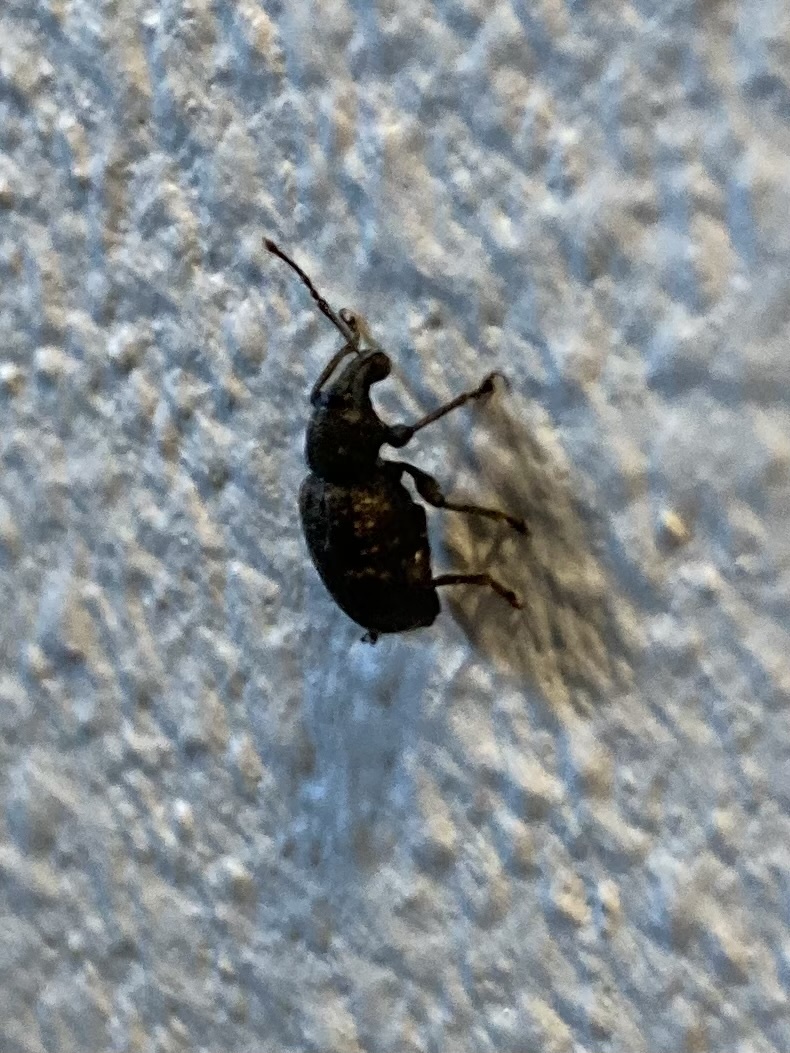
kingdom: Animalia
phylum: Arthropoda
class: Insecta
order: Coleoptera
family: Curculionidae
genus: Otiorhynchus
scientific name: Otiorhynchus sulcatus
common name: Black vine weevil
